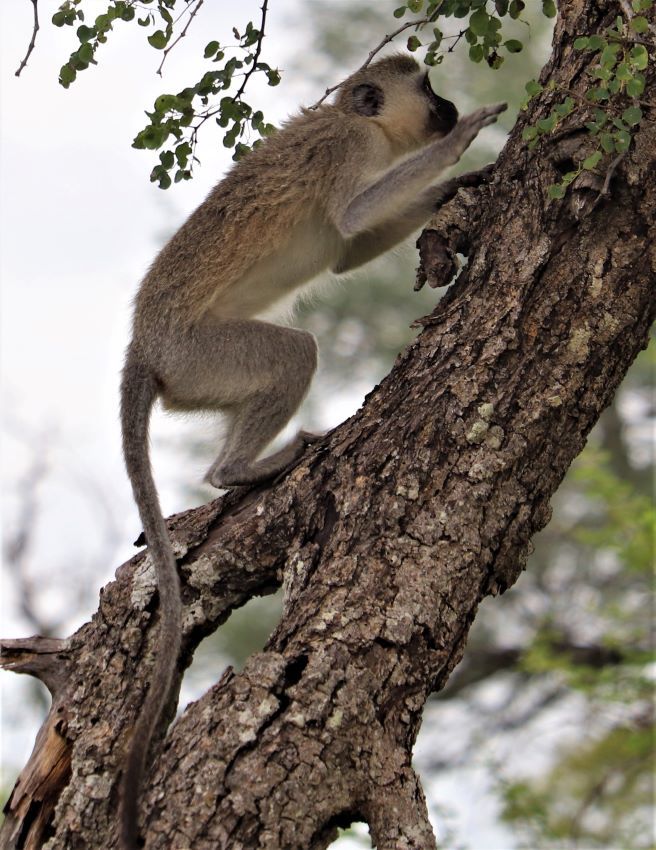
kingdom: Animalia
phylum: Chordata
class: Mammalia
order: Primates
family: Cercopithecidae
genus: Chlorocebus
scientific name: Chlorocebus pygerythrus
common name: Vervet monkey
